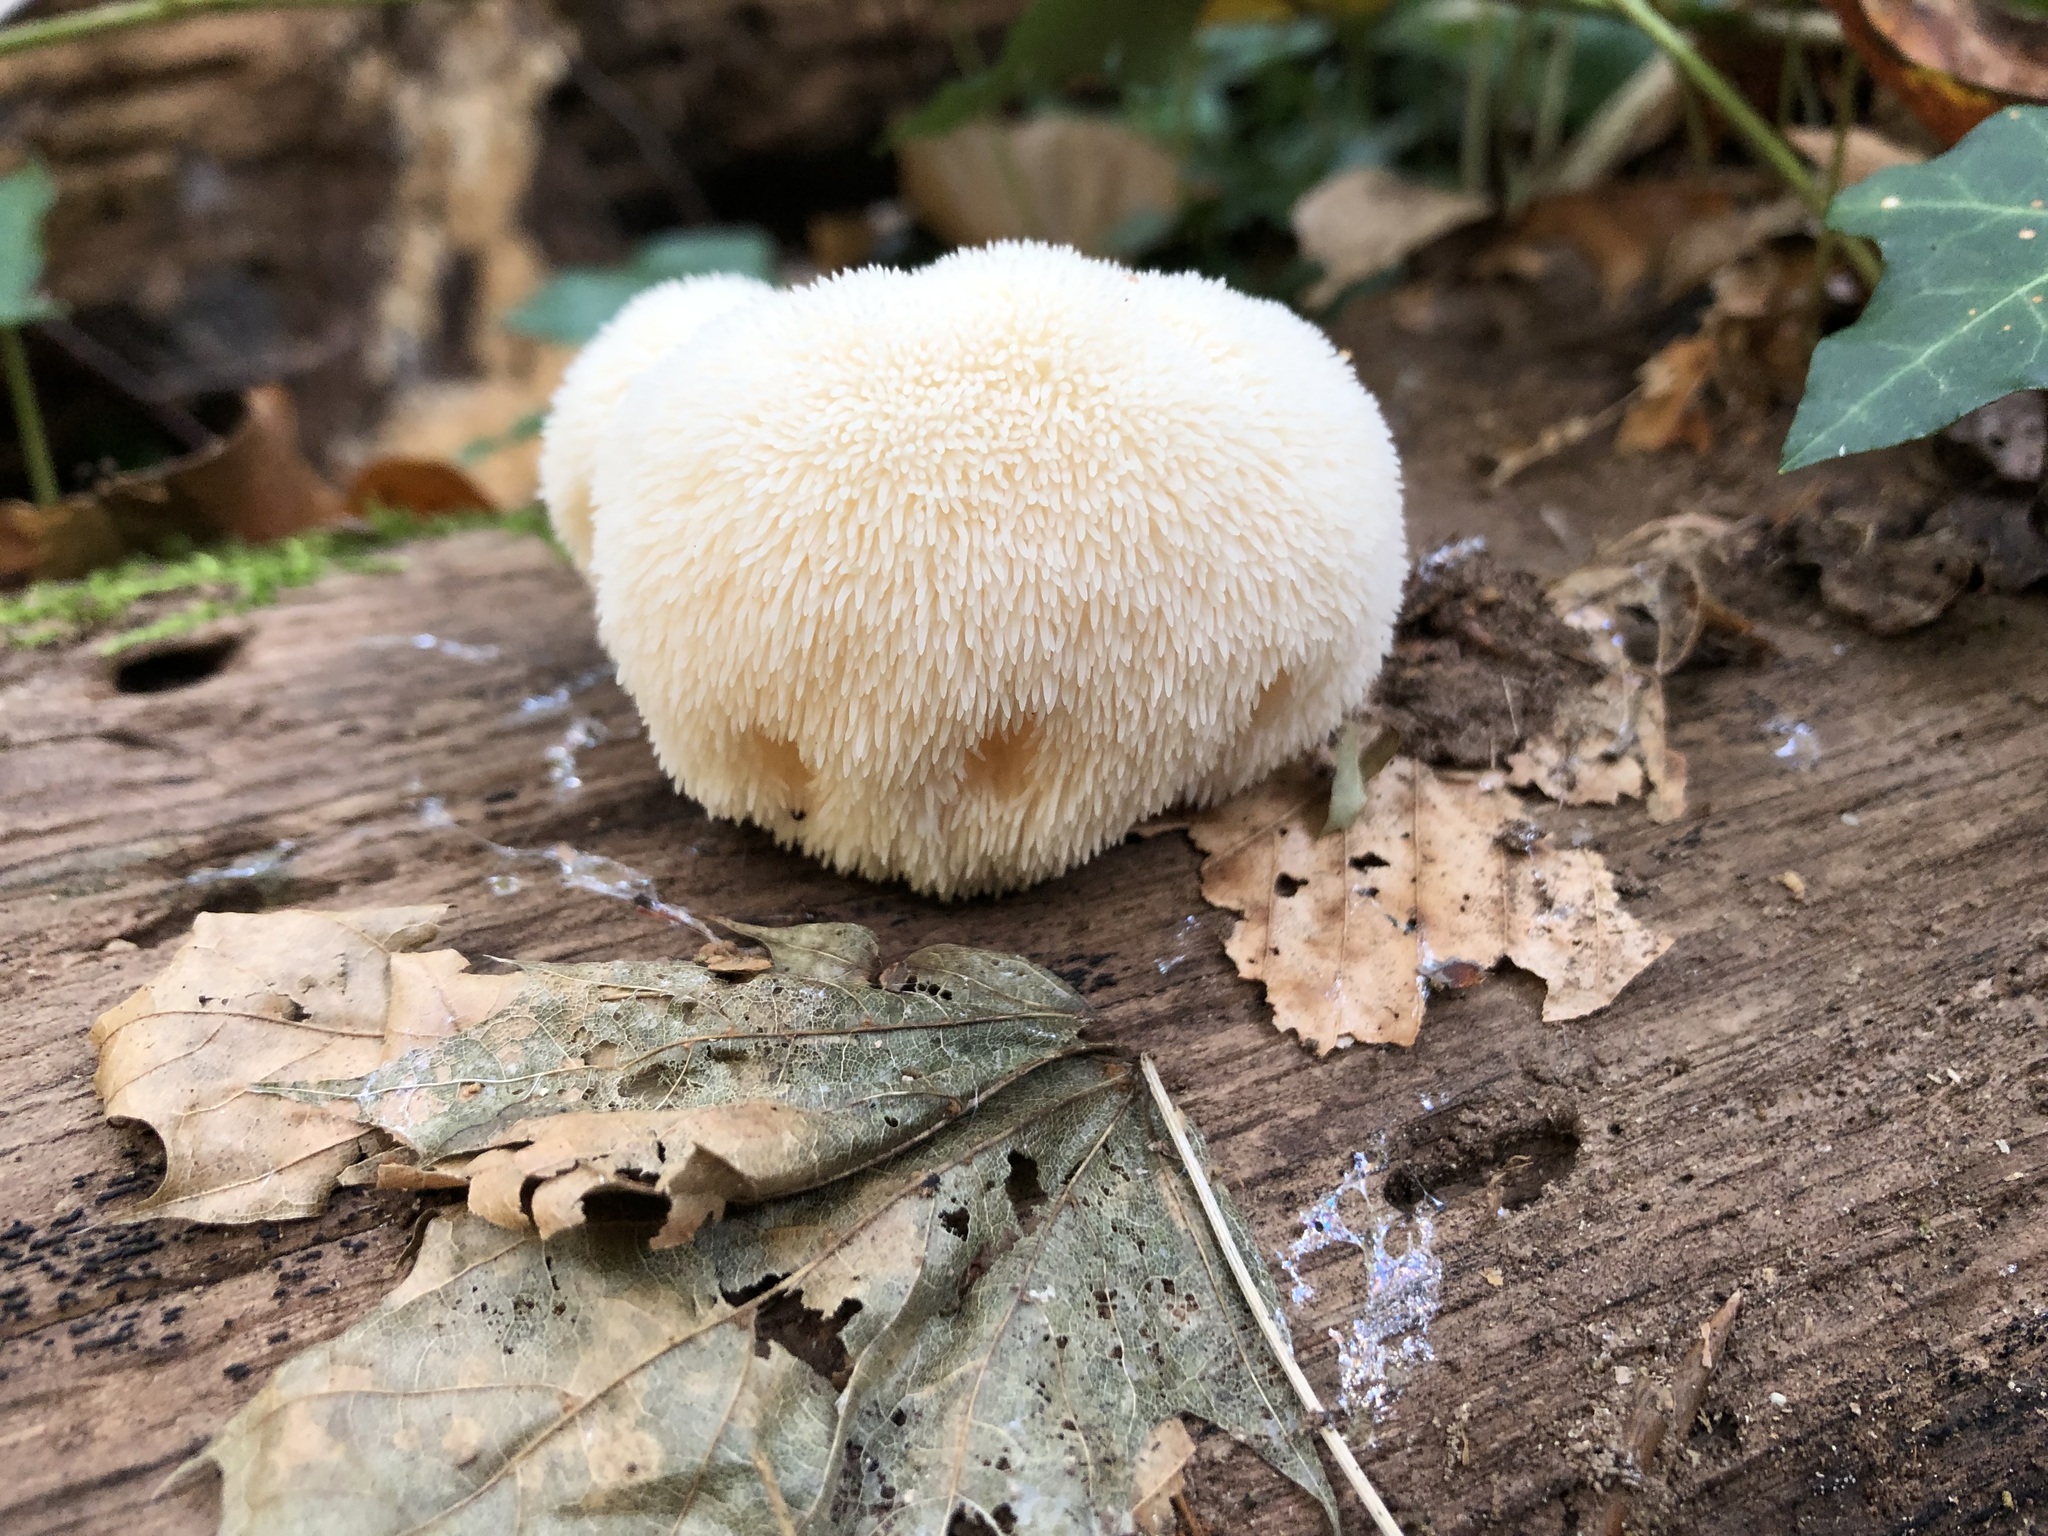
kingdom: Fungi
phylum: Basidiomycota
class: Agaricomycetes
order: Russulales
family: Hericiaceae
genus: Hericium
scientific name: Hericium erinaceus
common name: Bearded tooth
